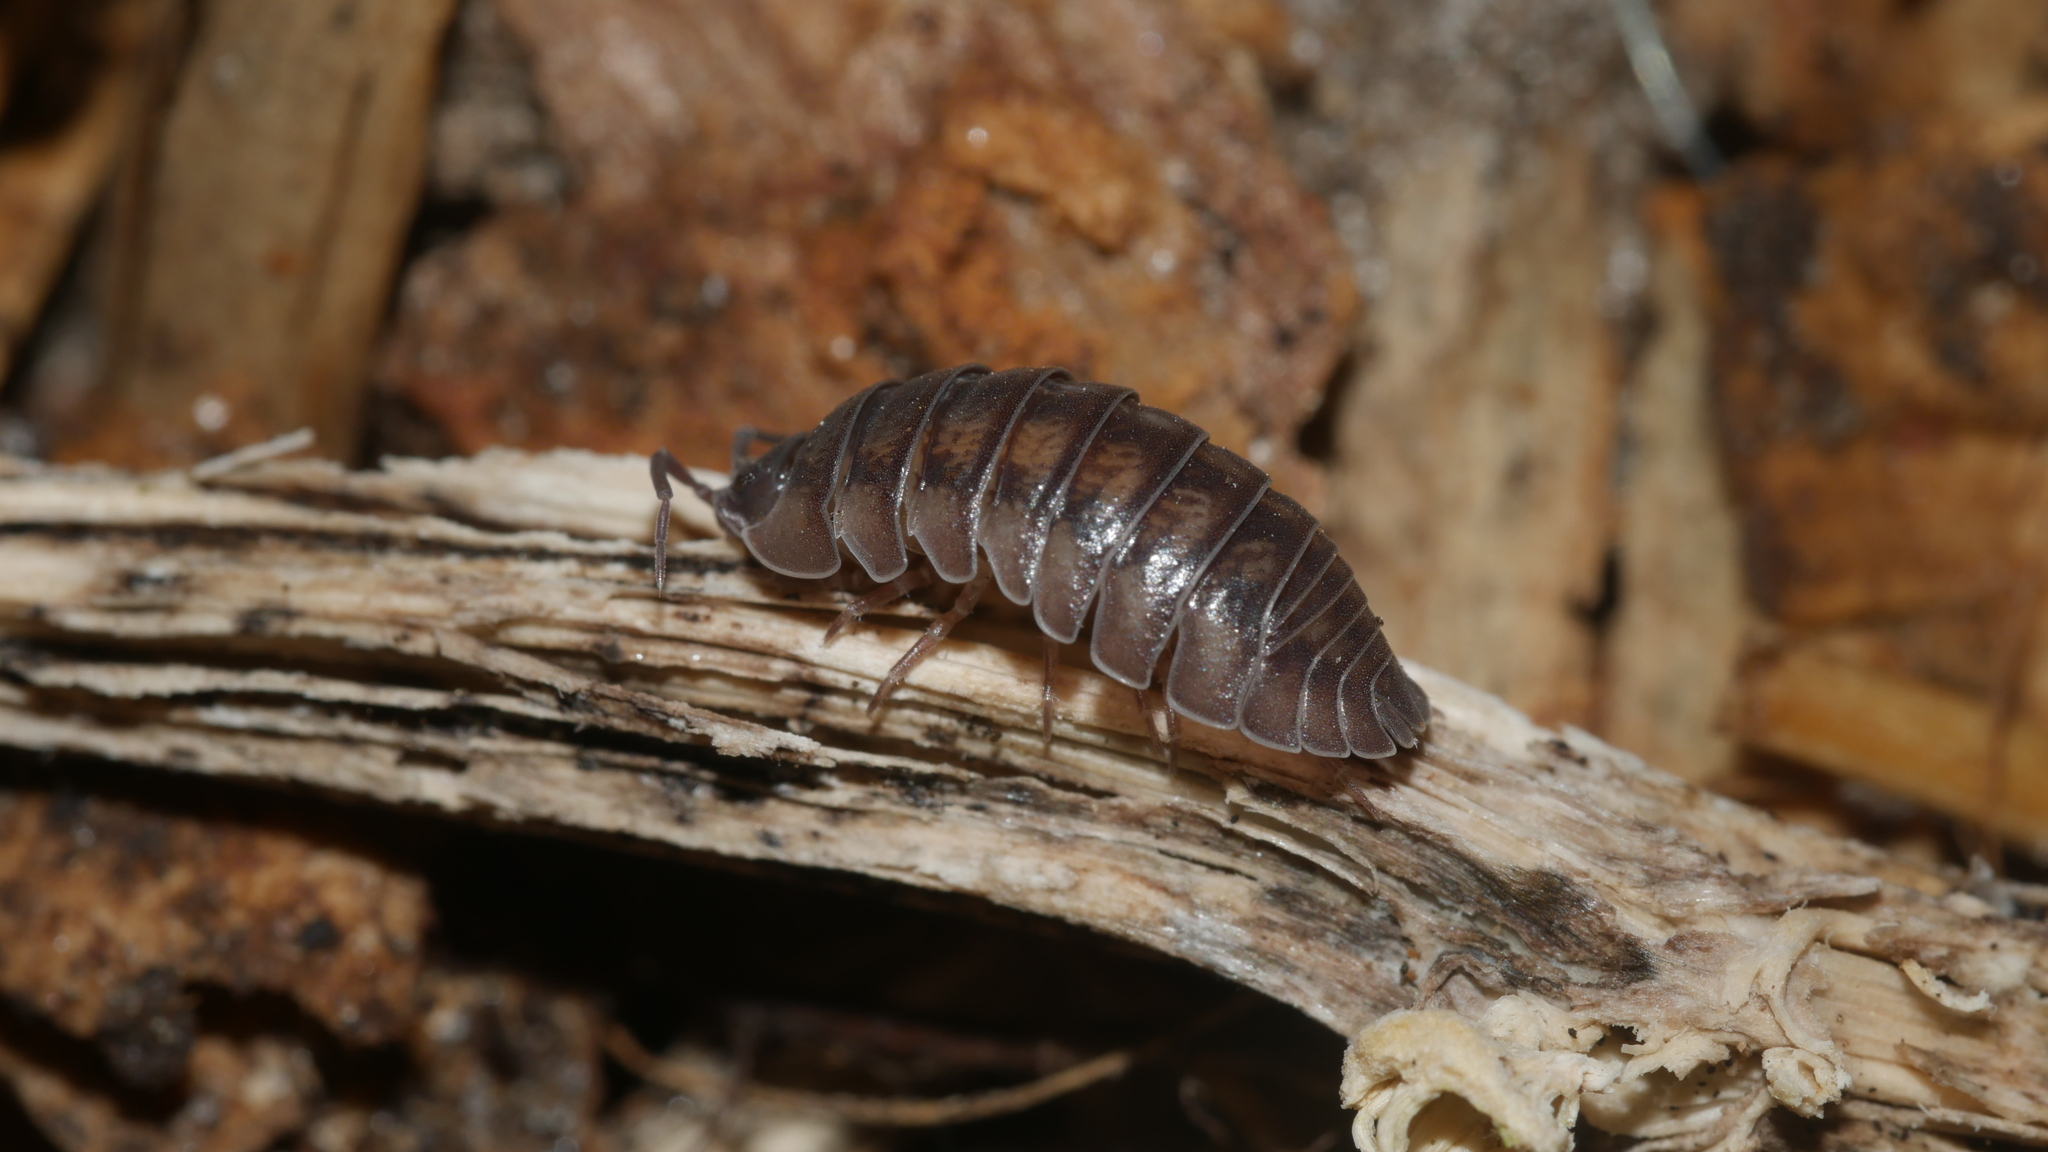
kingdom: Animalia
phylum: Arthropoda
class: Malacostraca
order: Isopoda
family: Armadillidiidae
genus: Armadillidium
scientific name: Armadillidium nasatum
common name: Isopod
